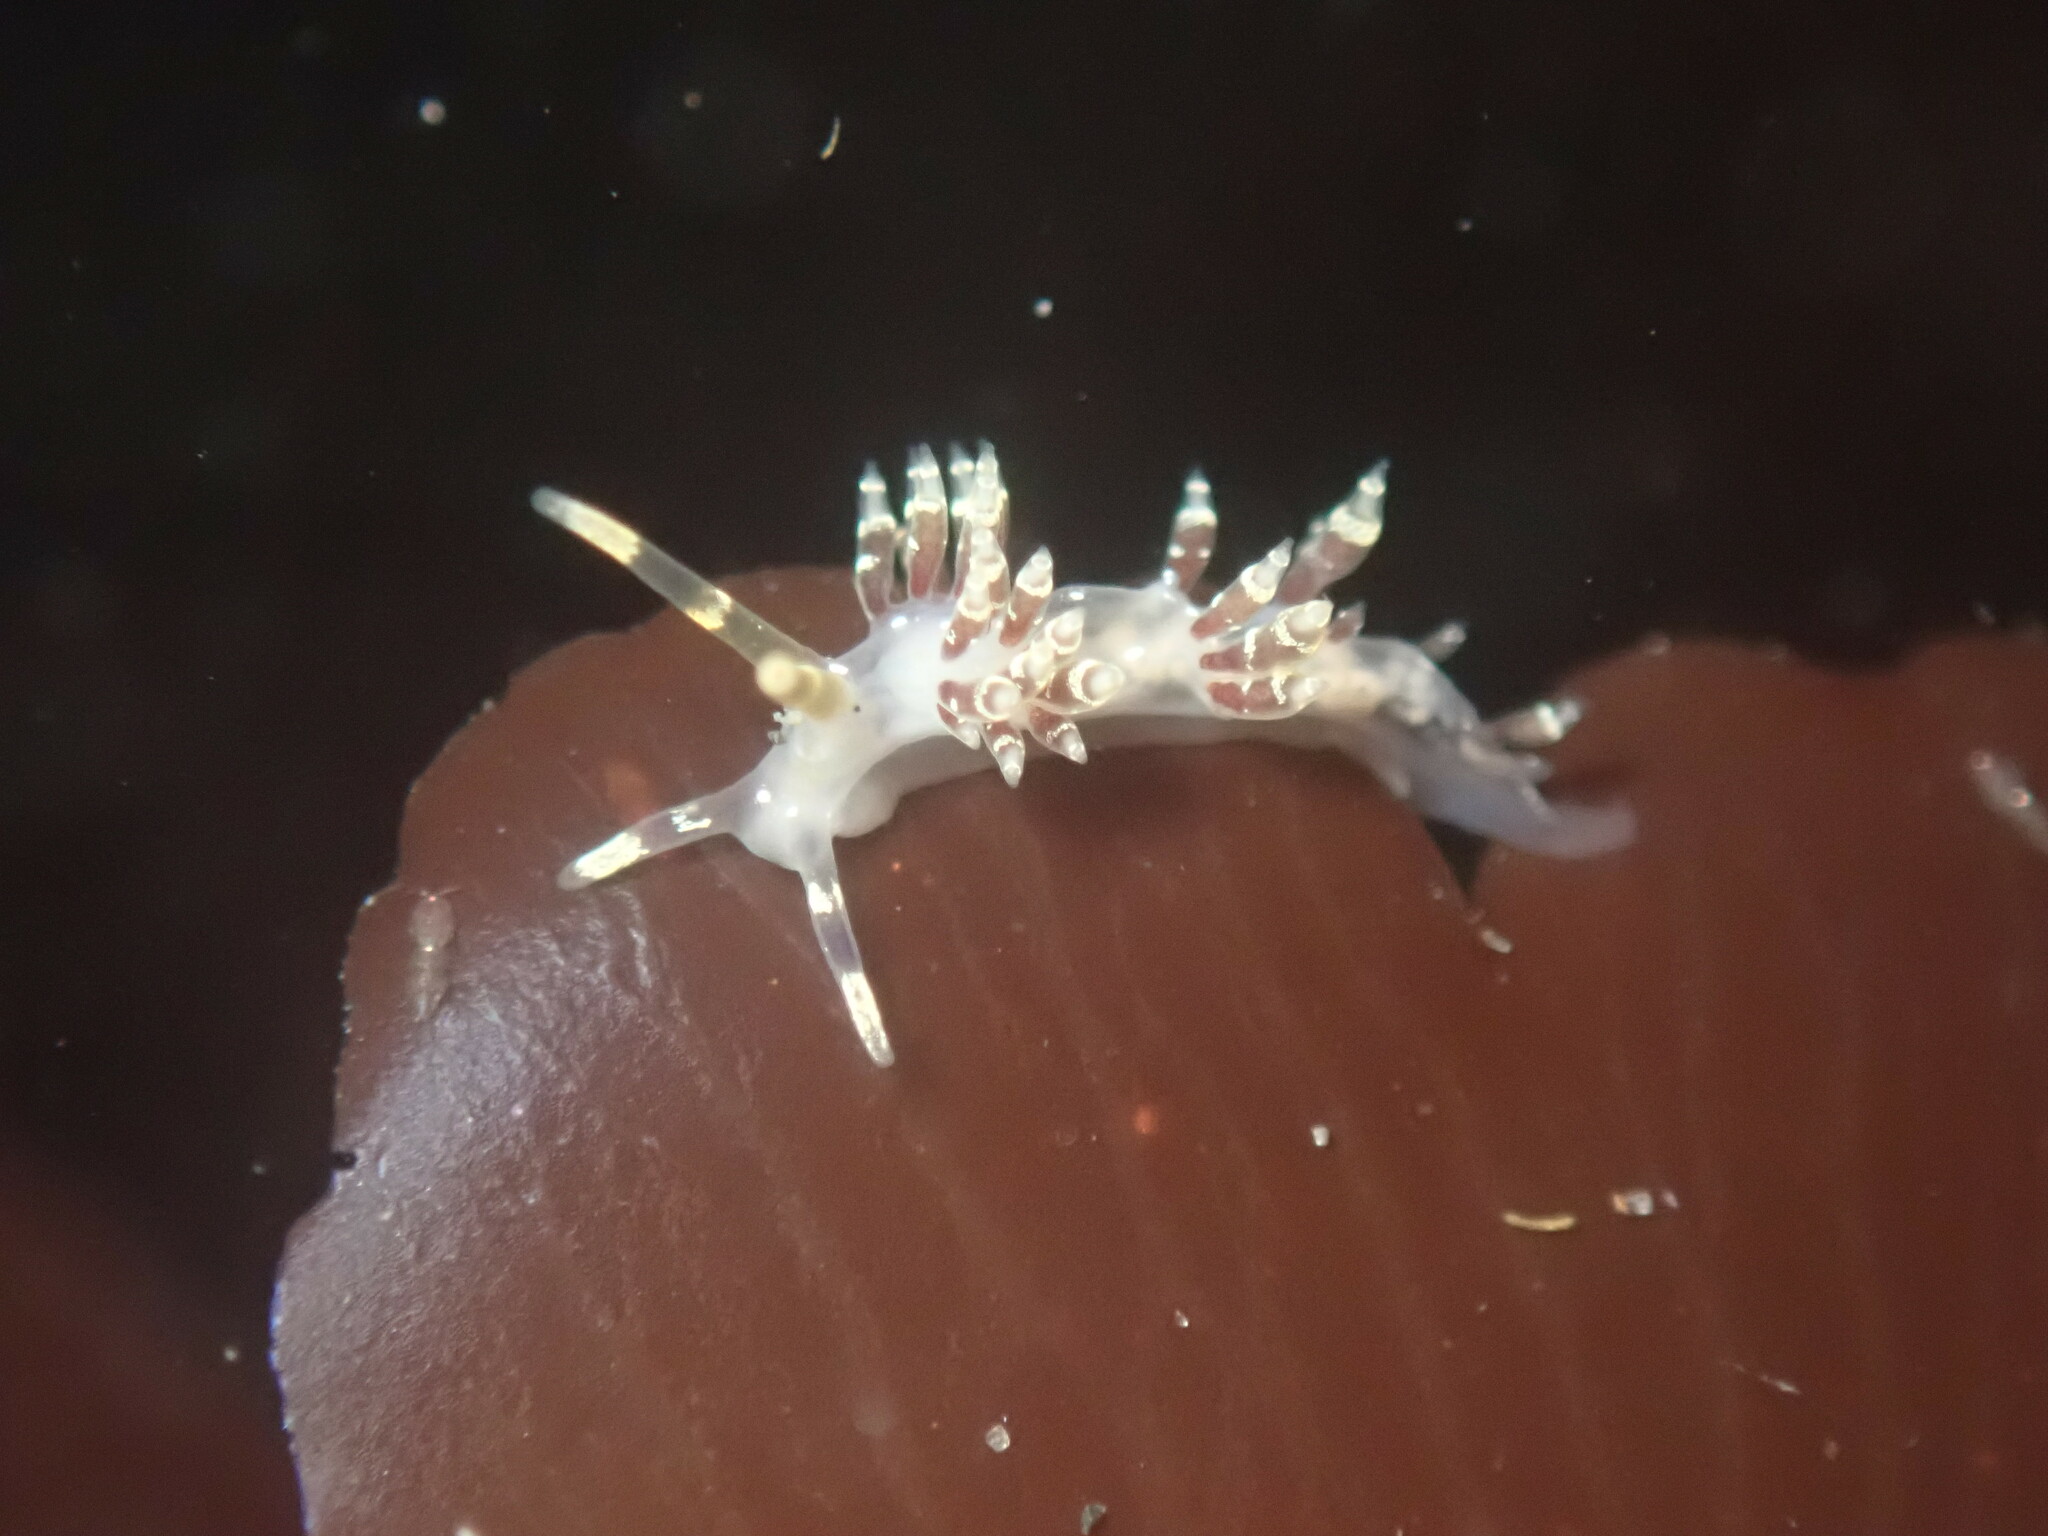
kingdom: Animalia
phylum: Mollusca
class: Gastropoda
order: Nudibranchia
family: Abronicidae
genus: Abronica
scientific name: Abronica abronia
